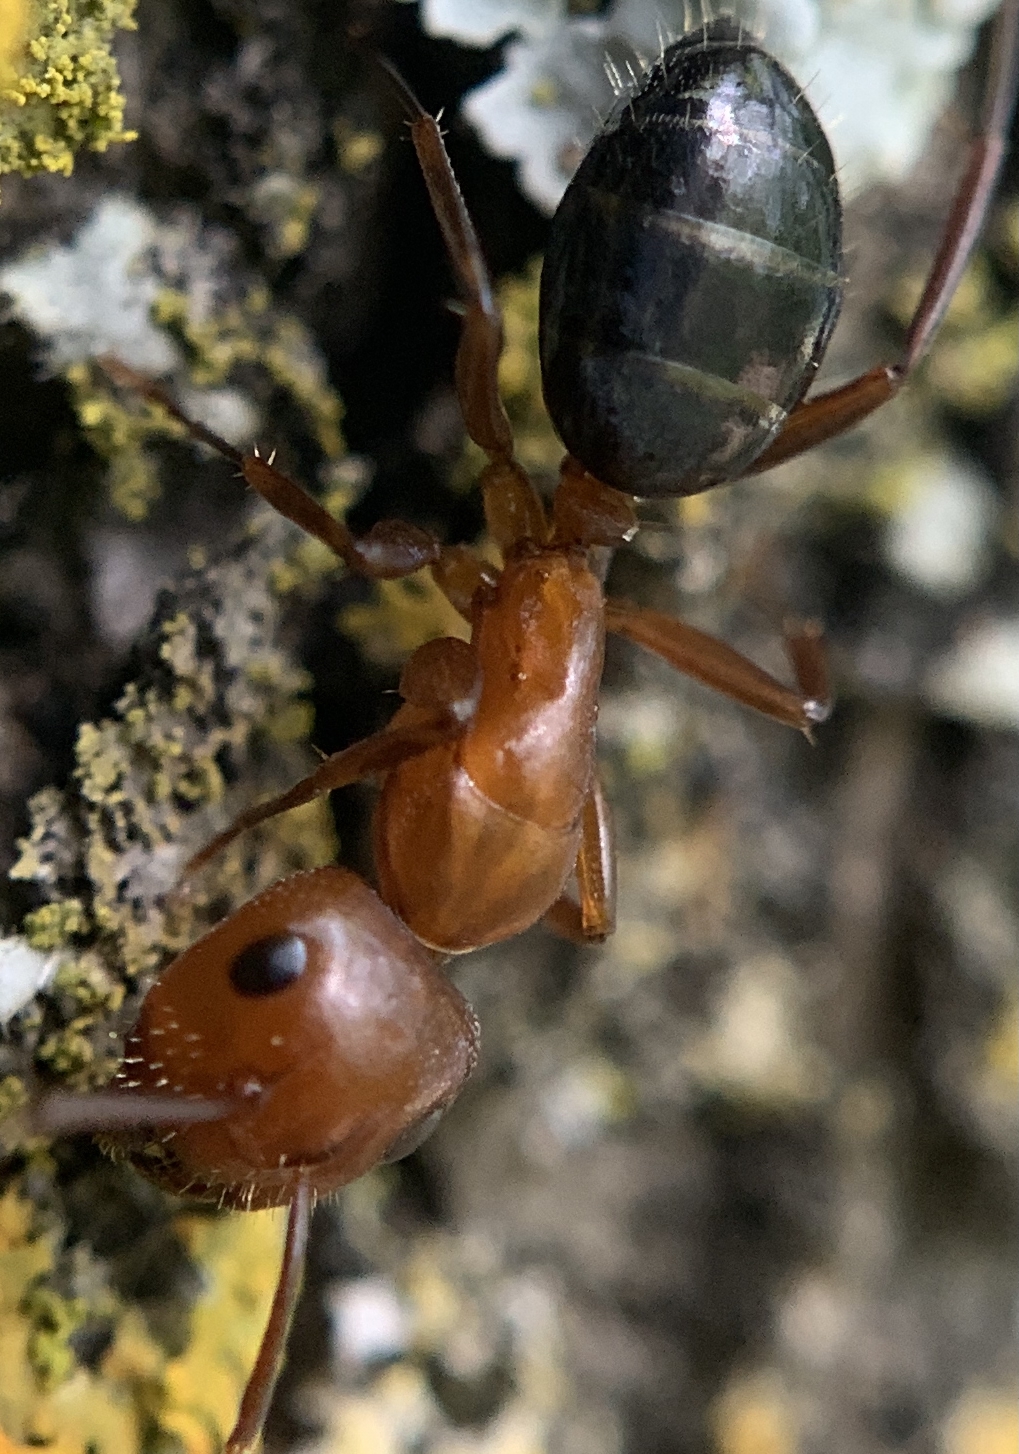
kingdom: Animalia
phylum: Arthropoda
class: Insecta
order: Hymenoptera
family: Formicidae
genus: Camponotus
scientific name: Camponotus discolor
